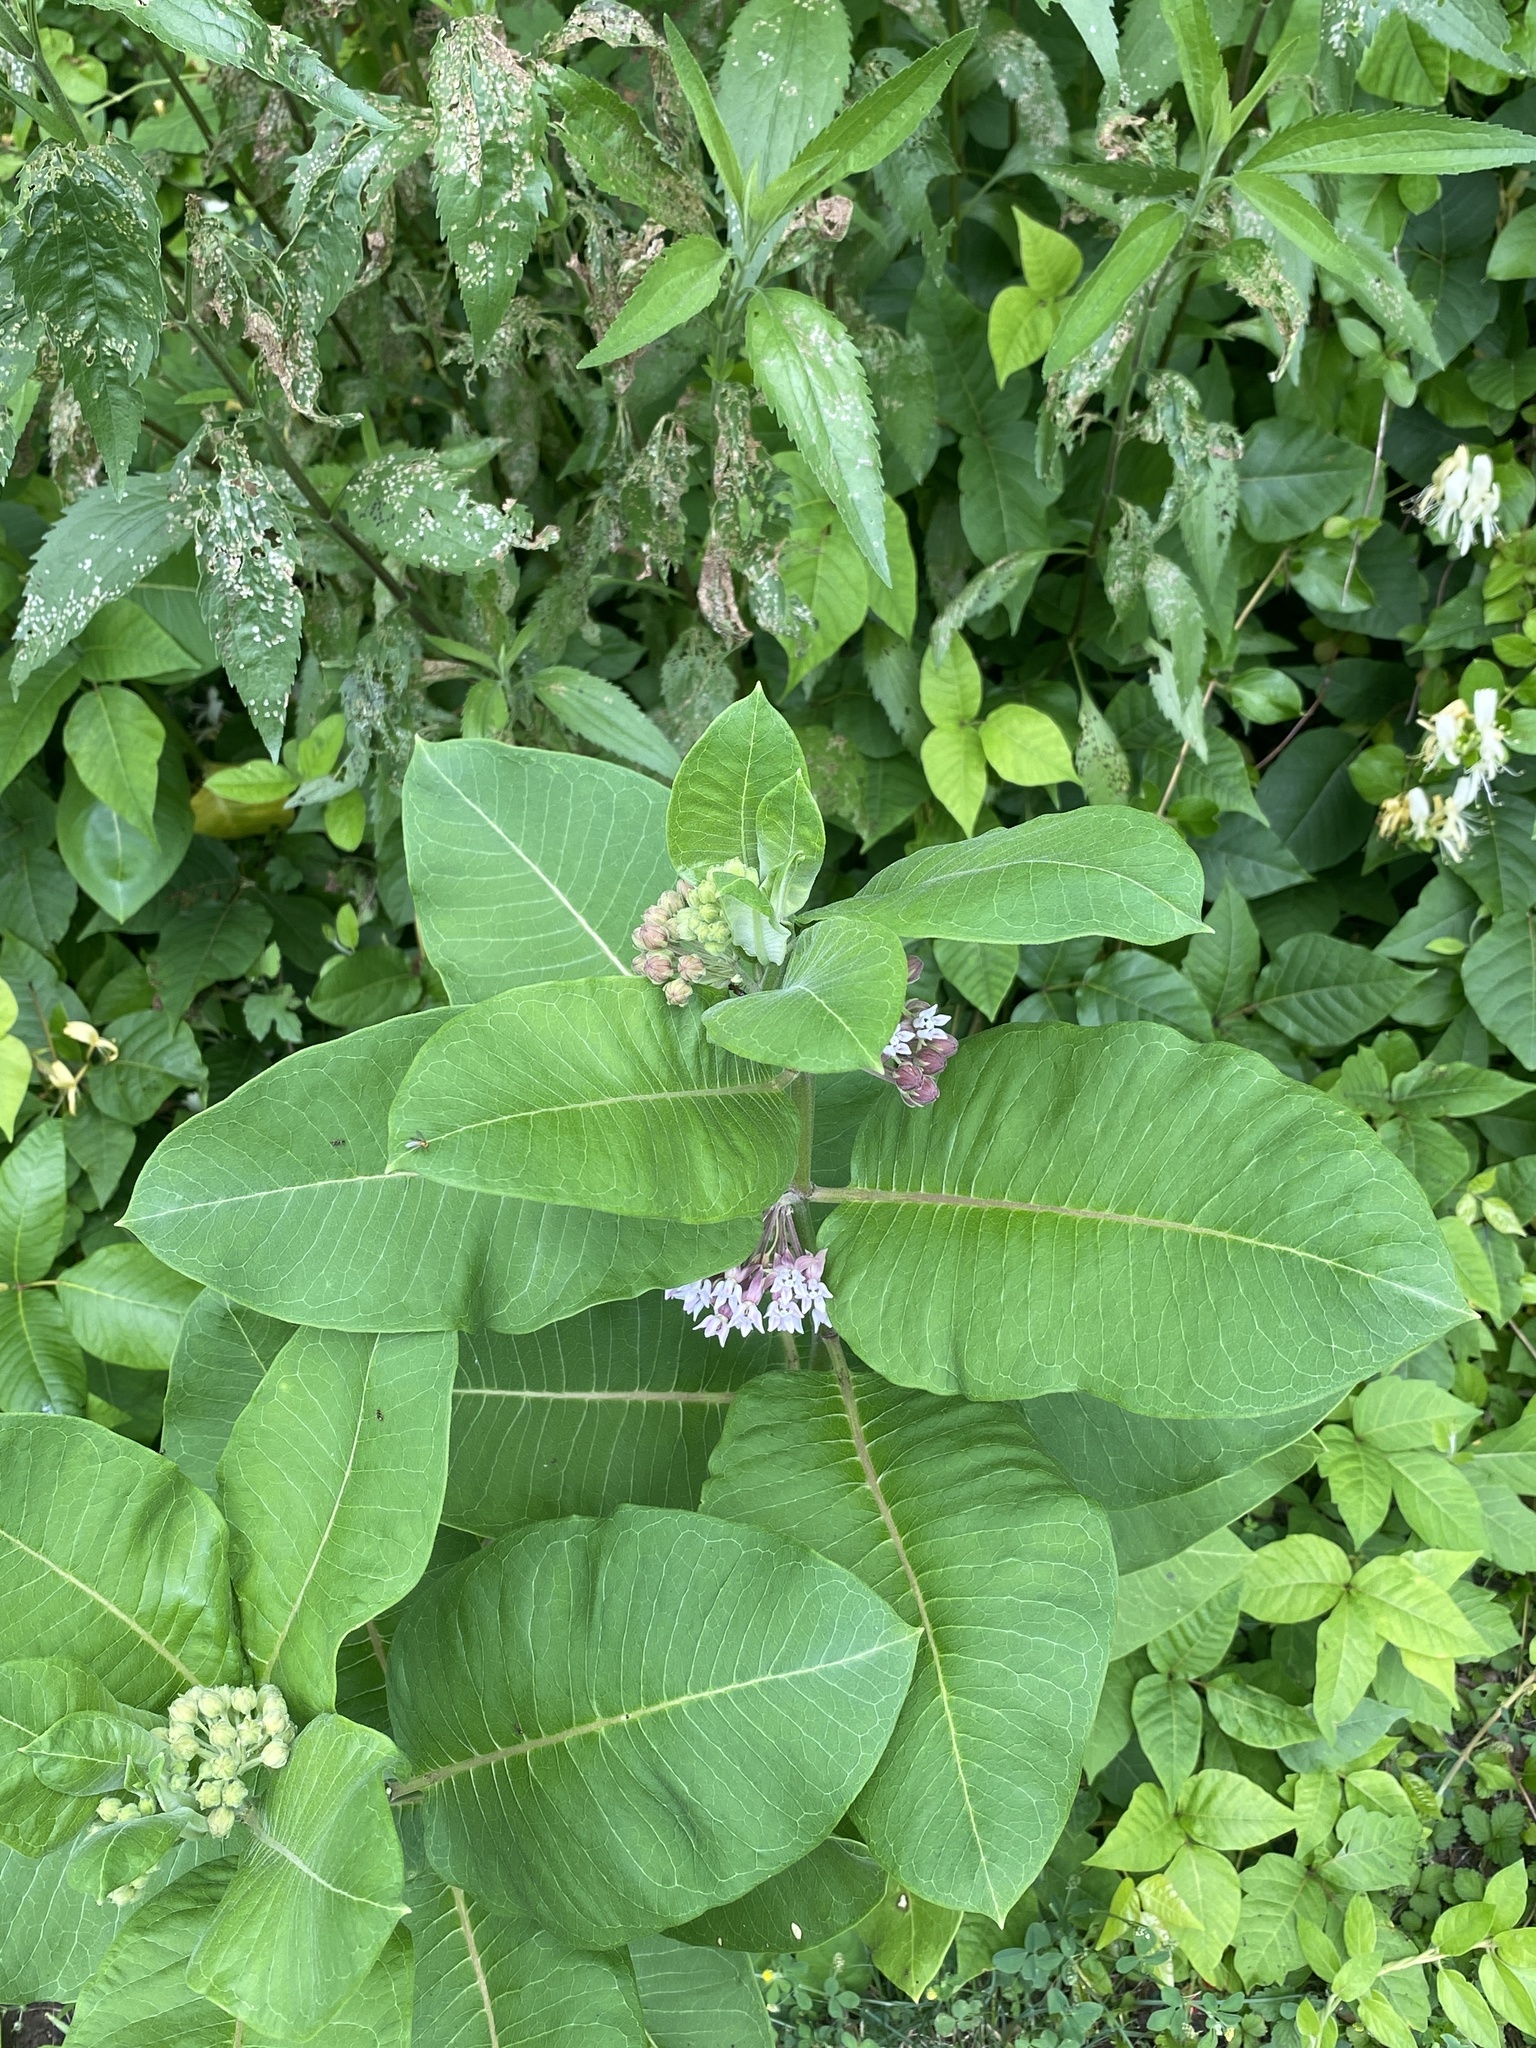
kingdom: Plantae
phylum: Tracheophyta
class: Magnoliopsida
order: Gentianales
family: Apocynaceae
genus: Asclepias
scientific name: Asclepias syriaca
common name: Common milkweed
